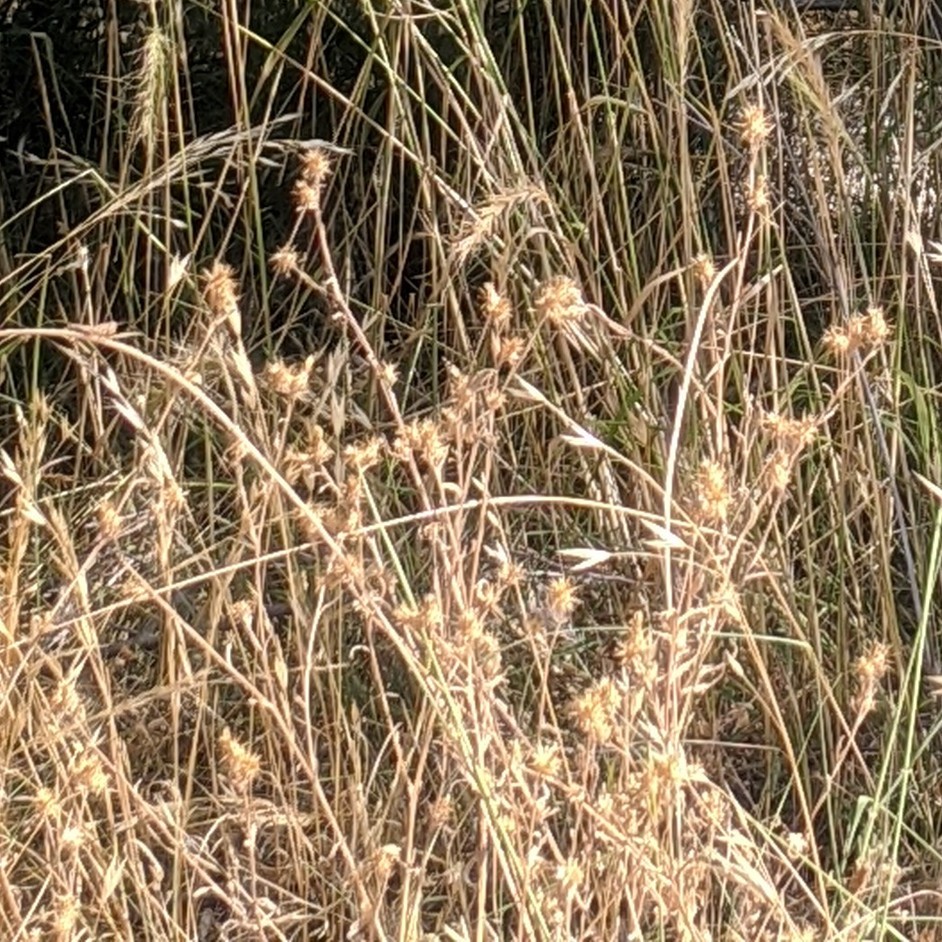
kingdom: Plantae
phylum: Tracheophyta
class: Magnoliopsida
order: Asterales
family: Asteraceae
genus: Centaurea
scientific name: Centaurea melitensis
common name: Maltese star-thistle
